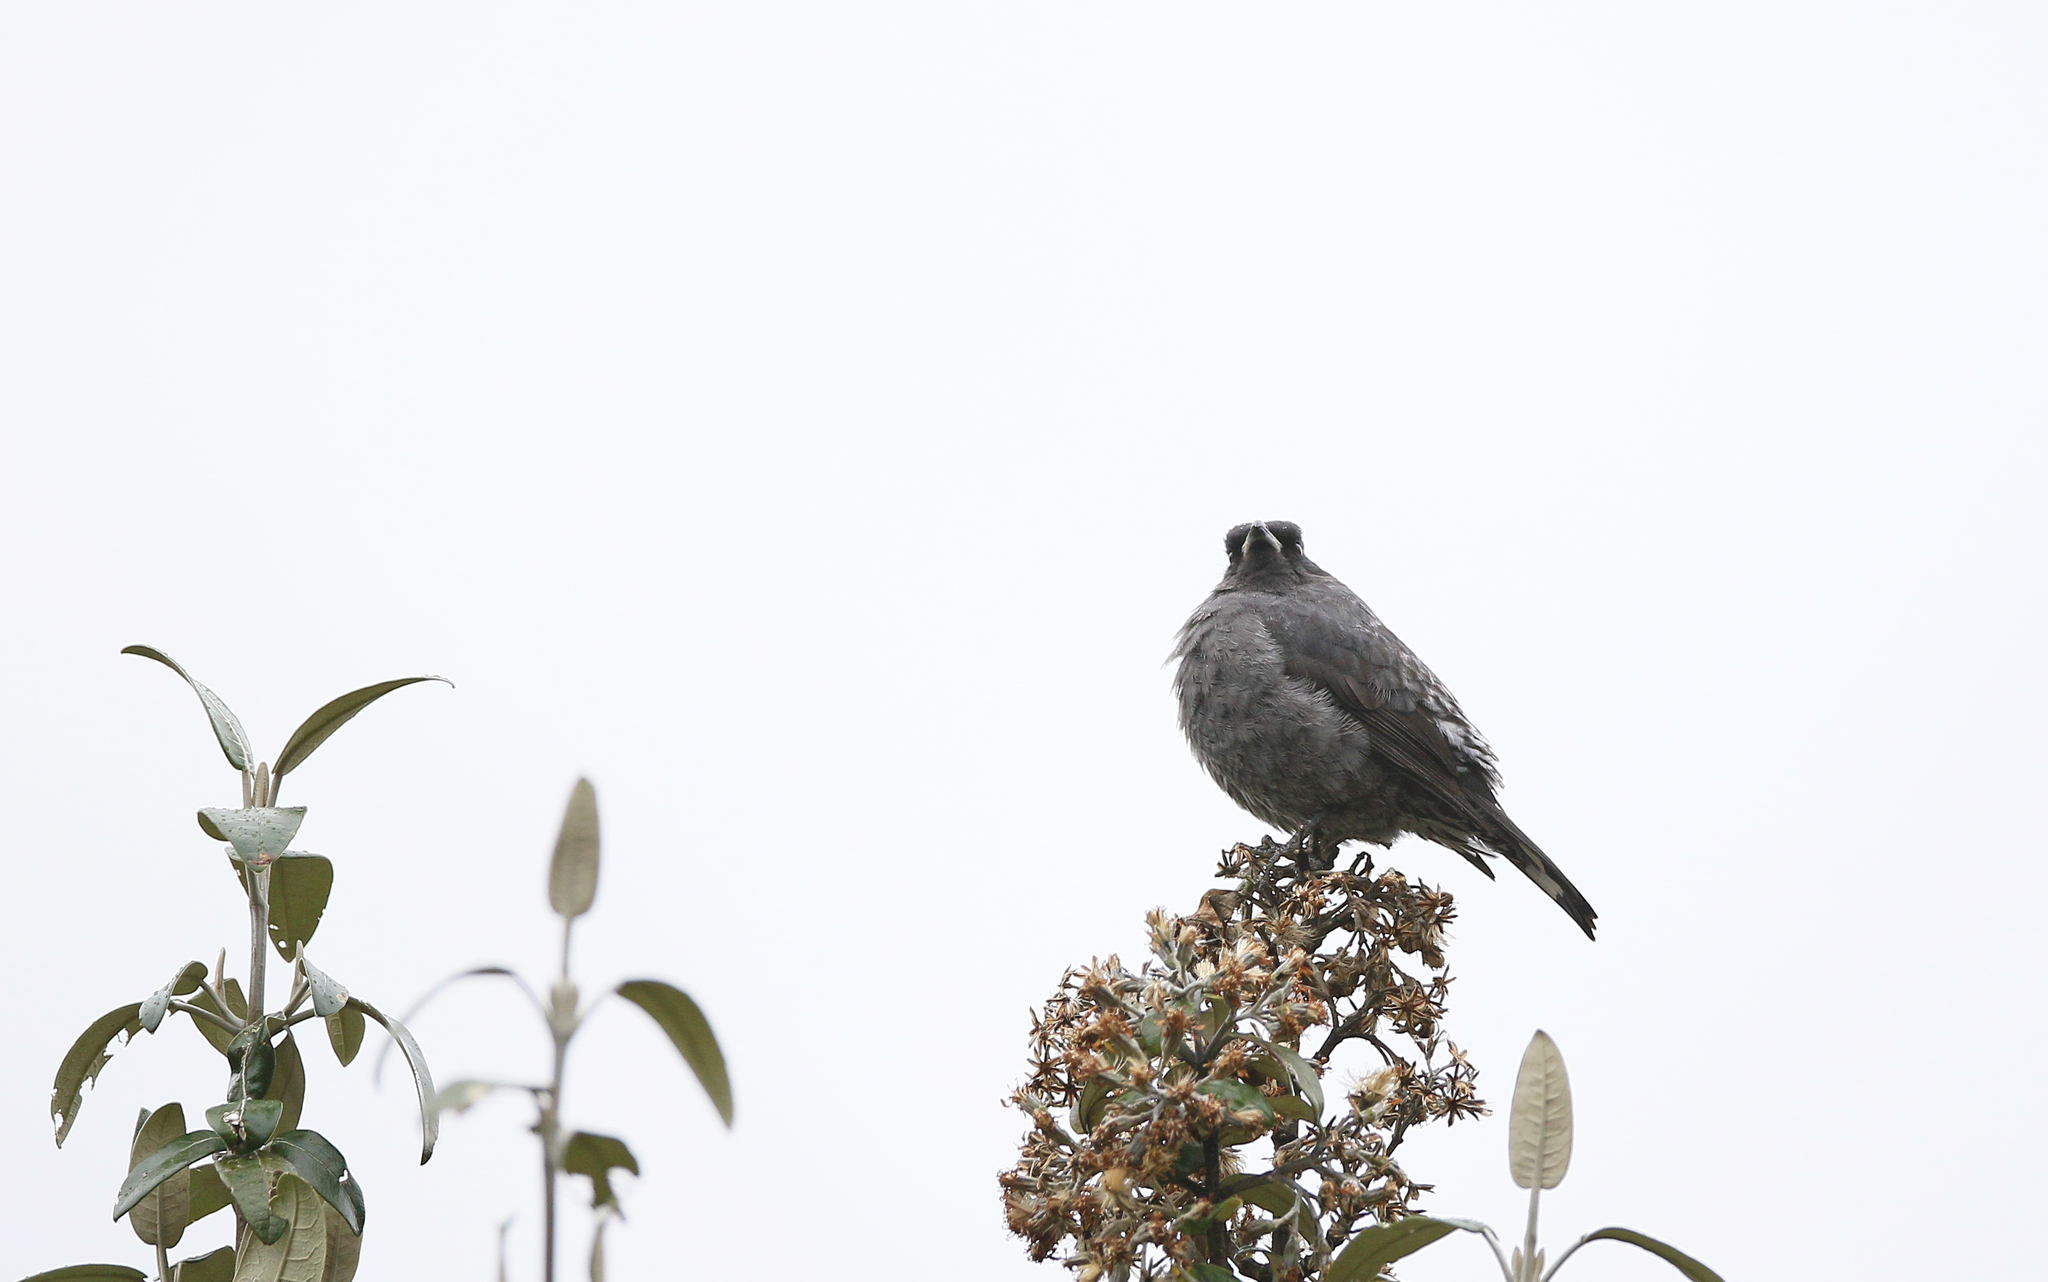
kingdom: Animalia
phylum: Chordata
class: Aves
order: Passeriformes
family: Cotingidae
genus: Ampelion
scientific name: Ampelion rubrocristatus
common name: Red-crested cotinga
